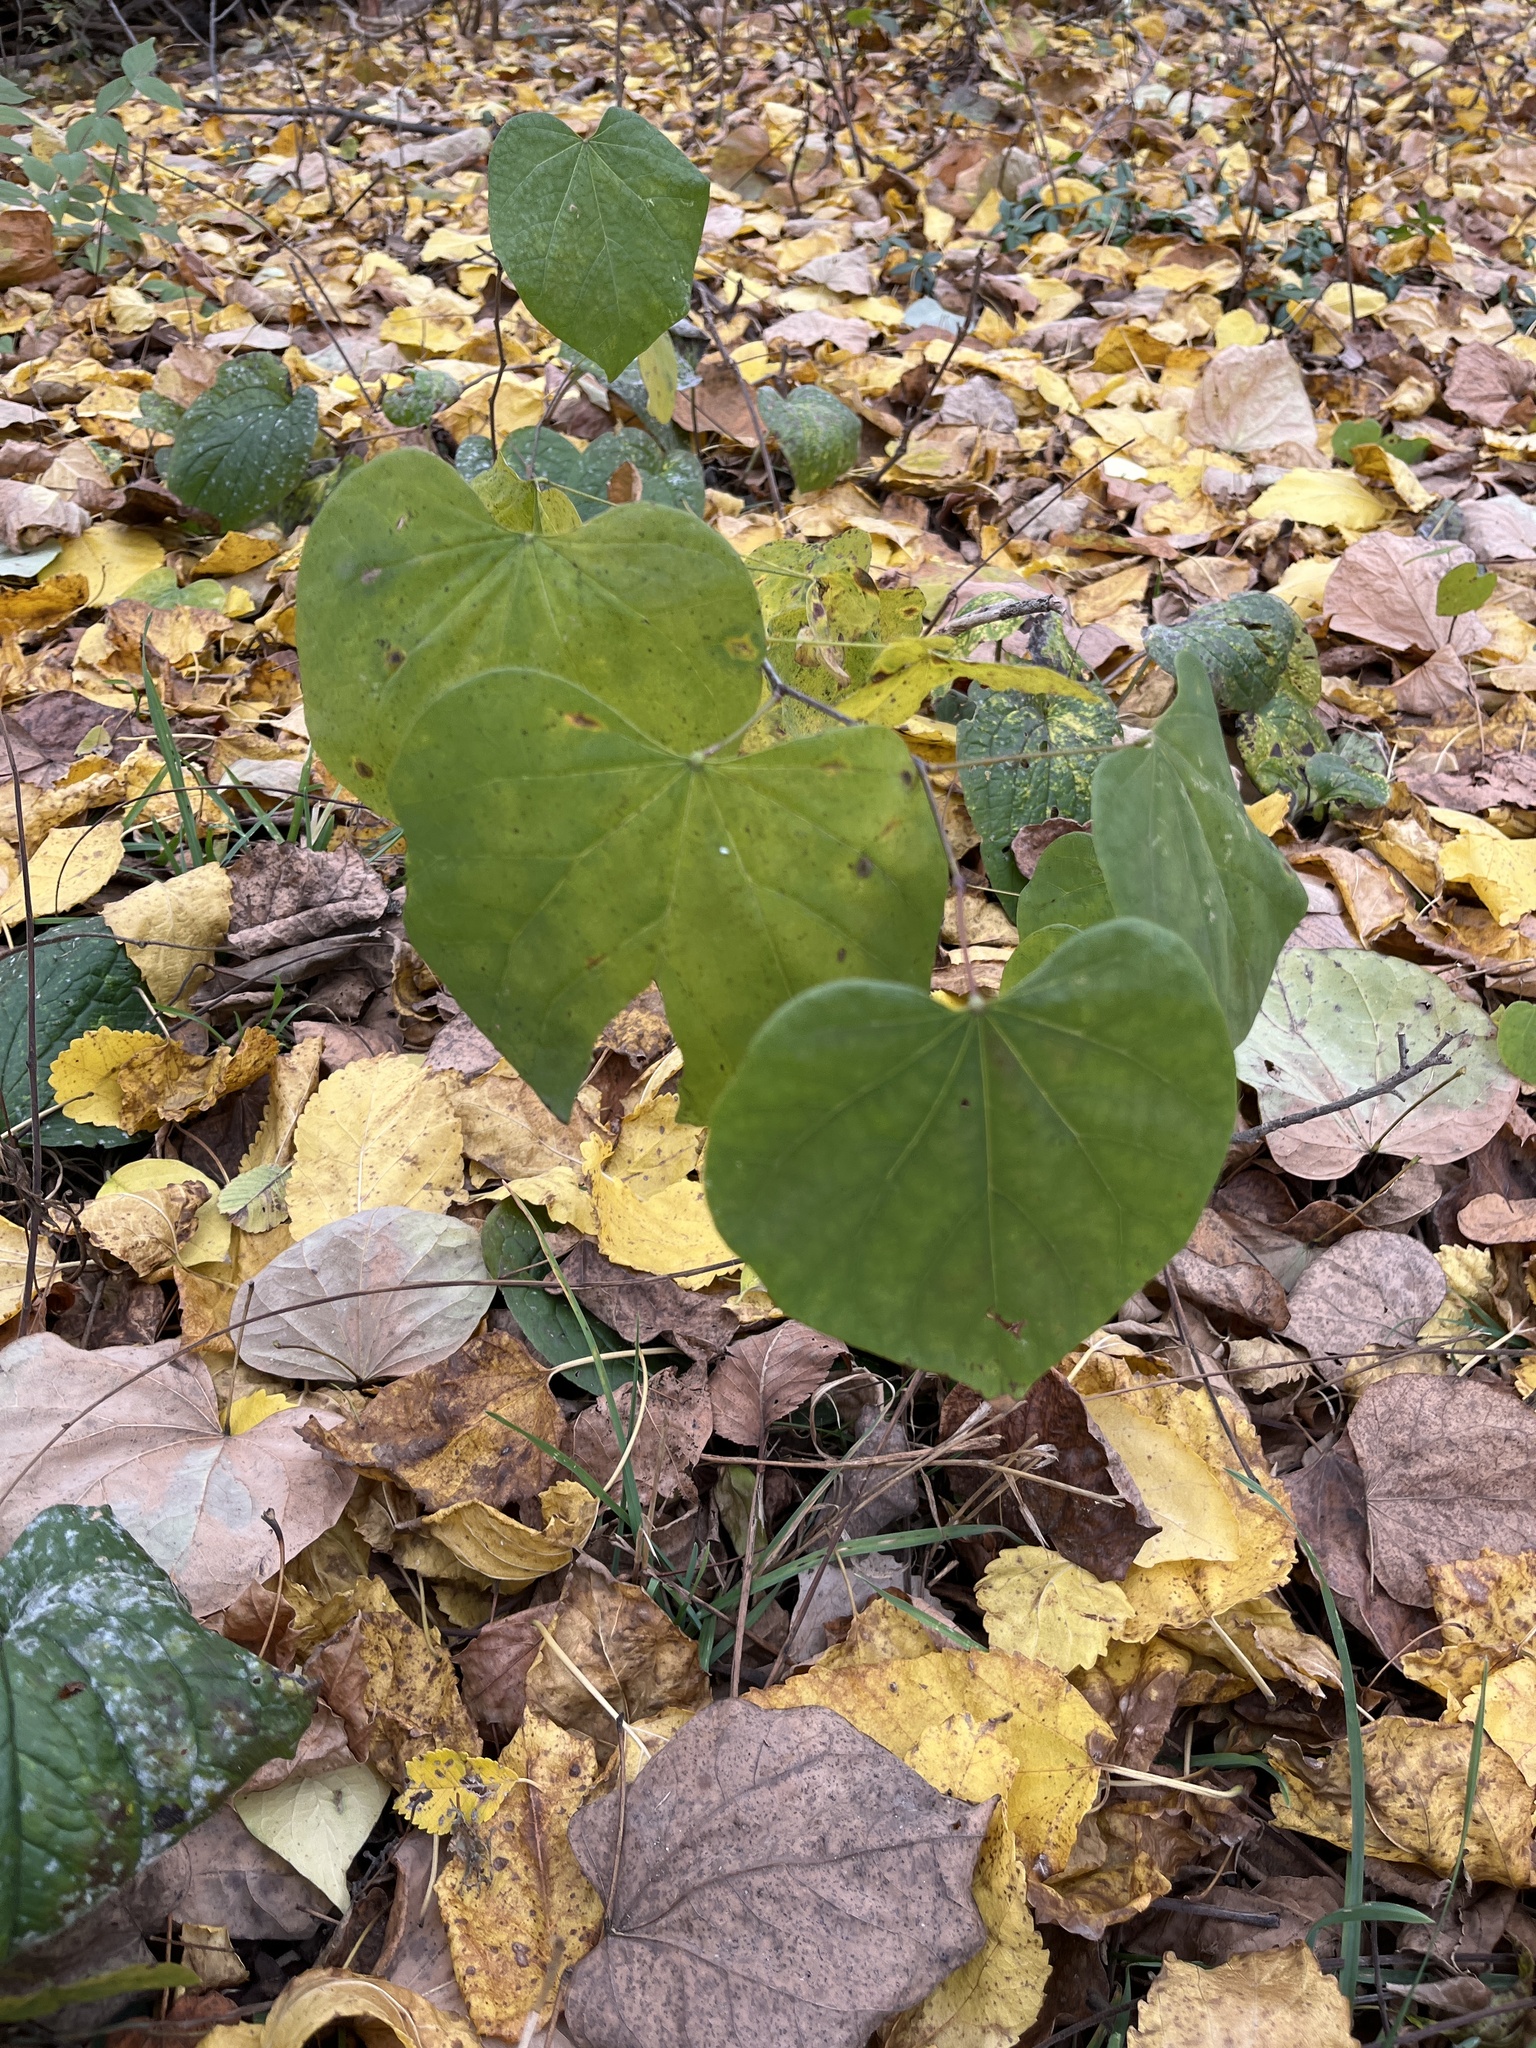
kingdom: Plantae
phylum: Tracheophyta
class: Magnoliopsida
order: Fabales
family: Fabaceae
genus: Cercis
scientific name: Cercis canadensis
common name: Eastern redbud
